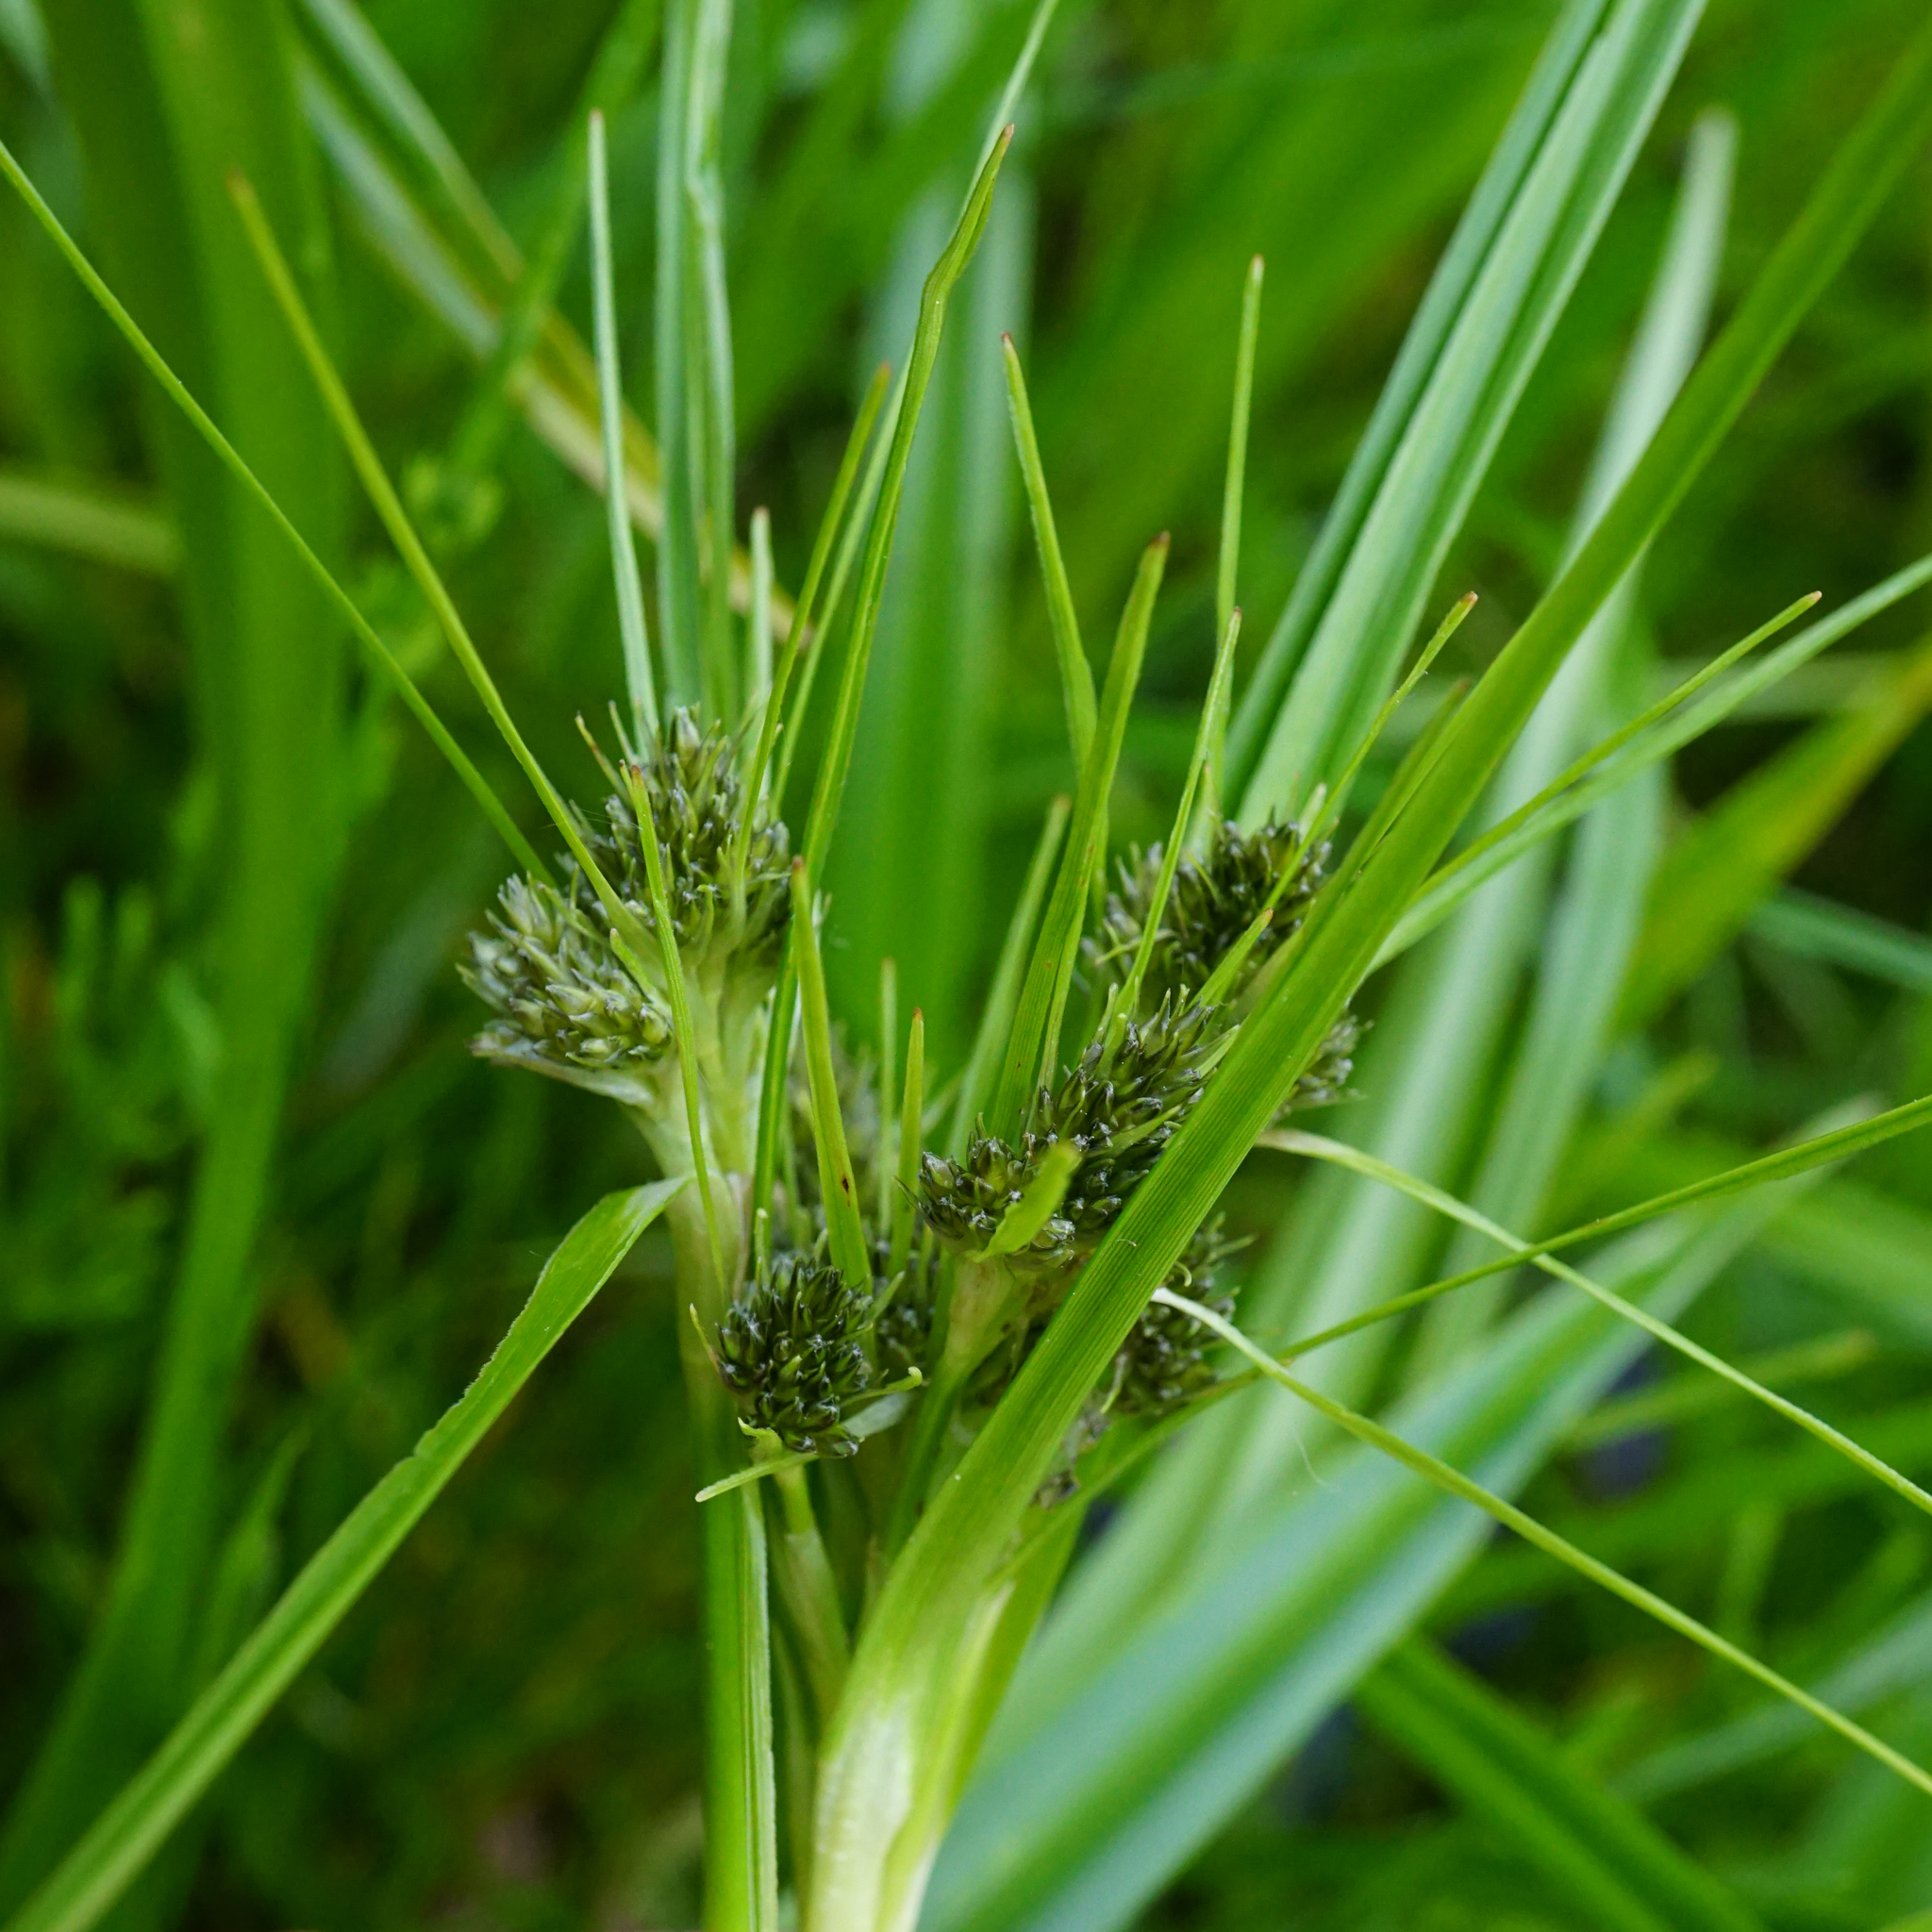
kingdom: Plantae
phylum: Tracheophyta
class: Liliopsida
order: Poales
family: Cyperaceae
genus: Scirpus
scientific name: Scirpus sylvaticus
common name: Wood club-rush
